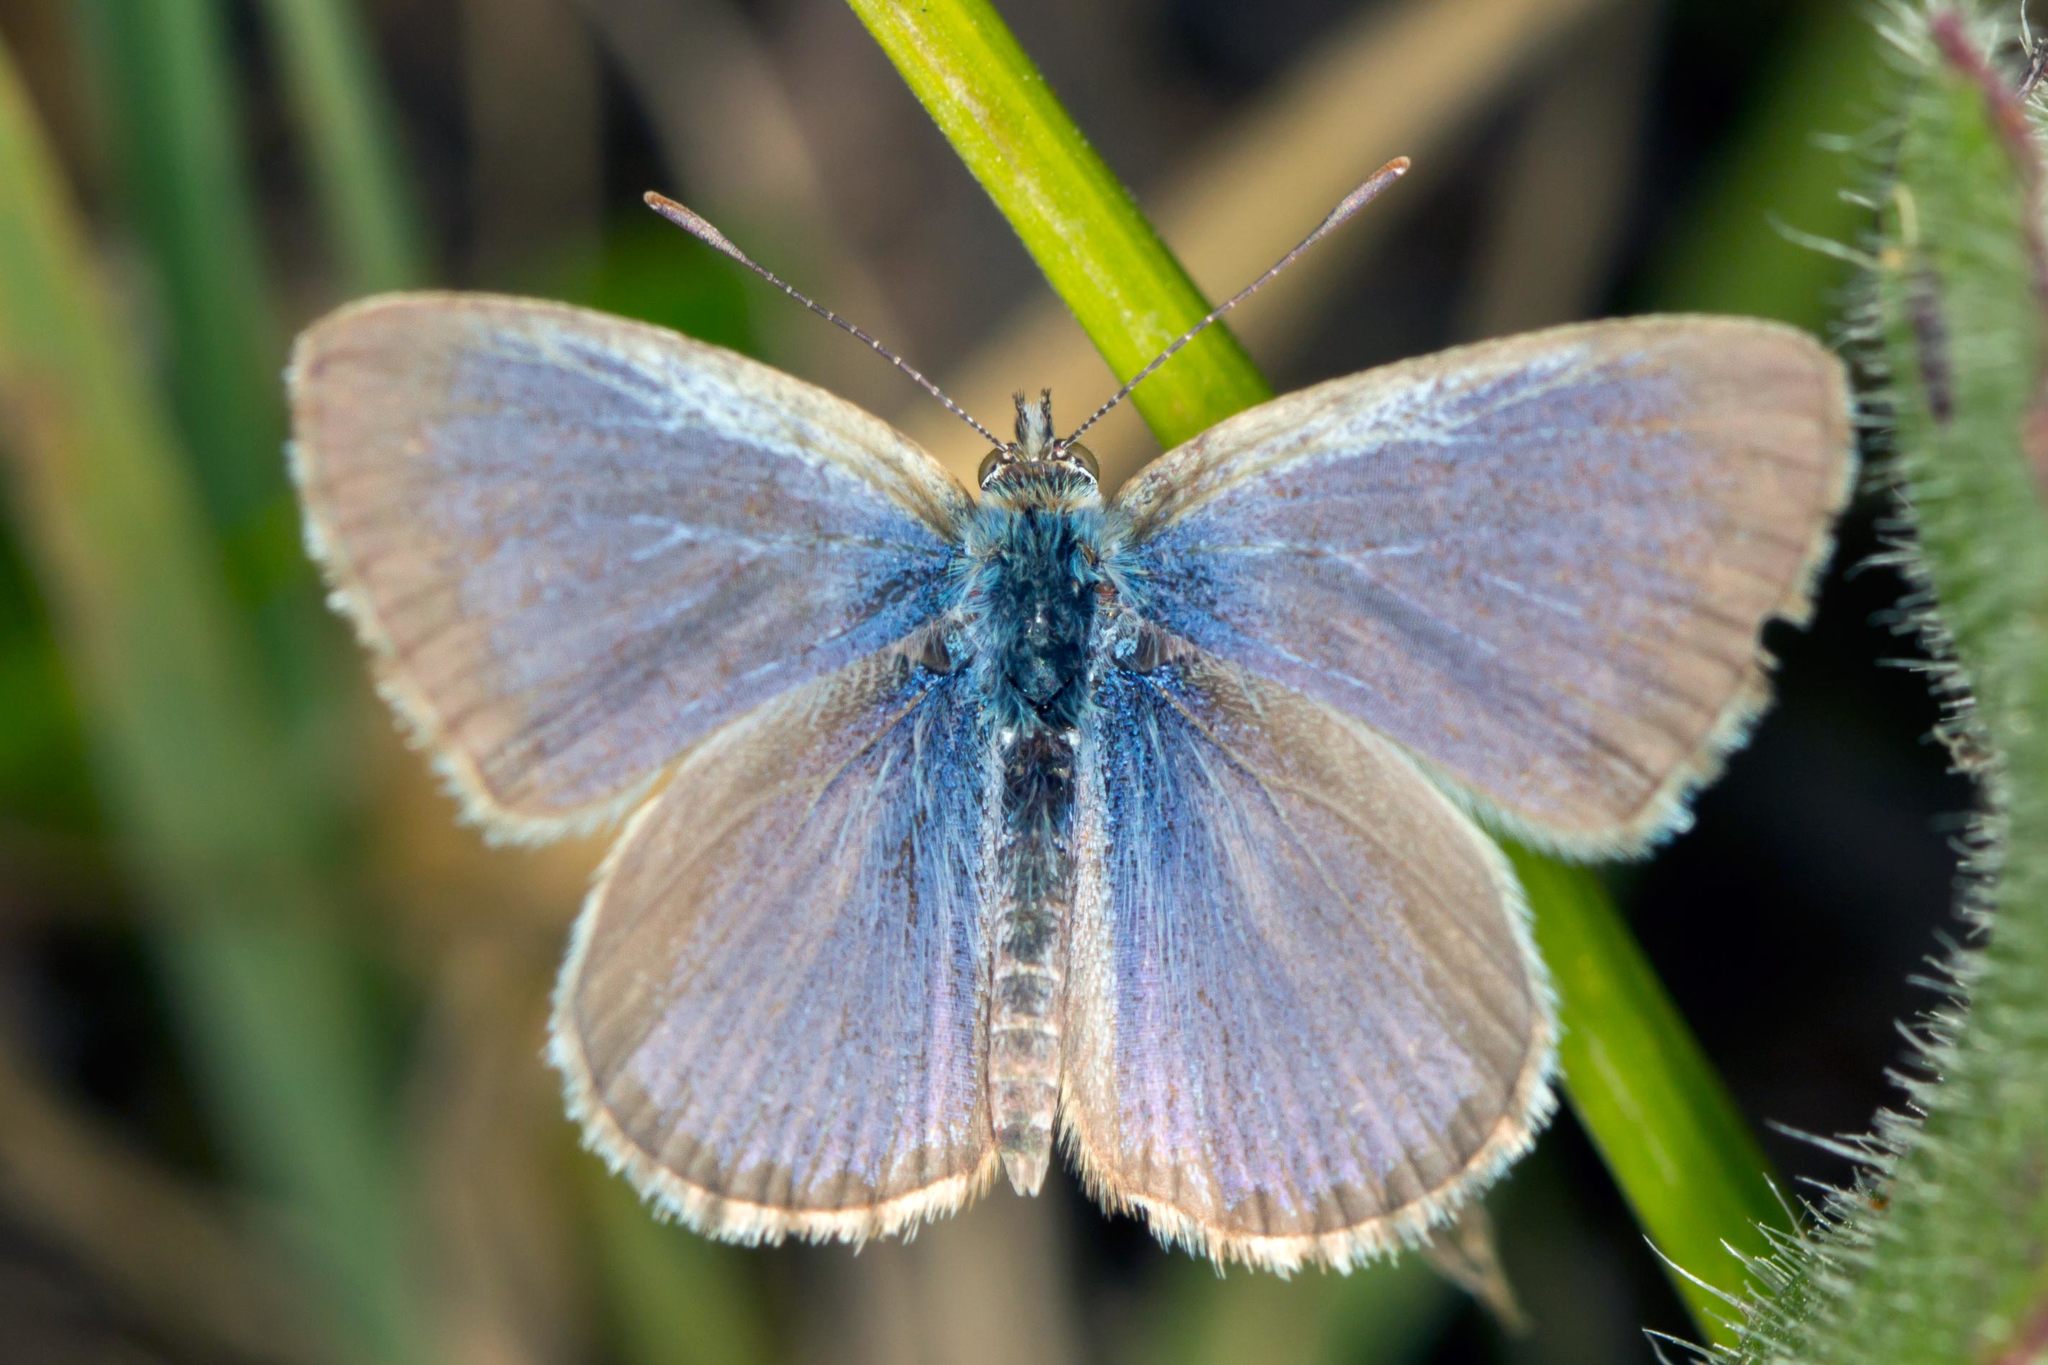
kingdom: Animalia
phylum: Arthropoda
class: Insecta
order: Lepidoptera
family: Lycaenidae
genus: Zizina
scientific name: Zizina labradus
